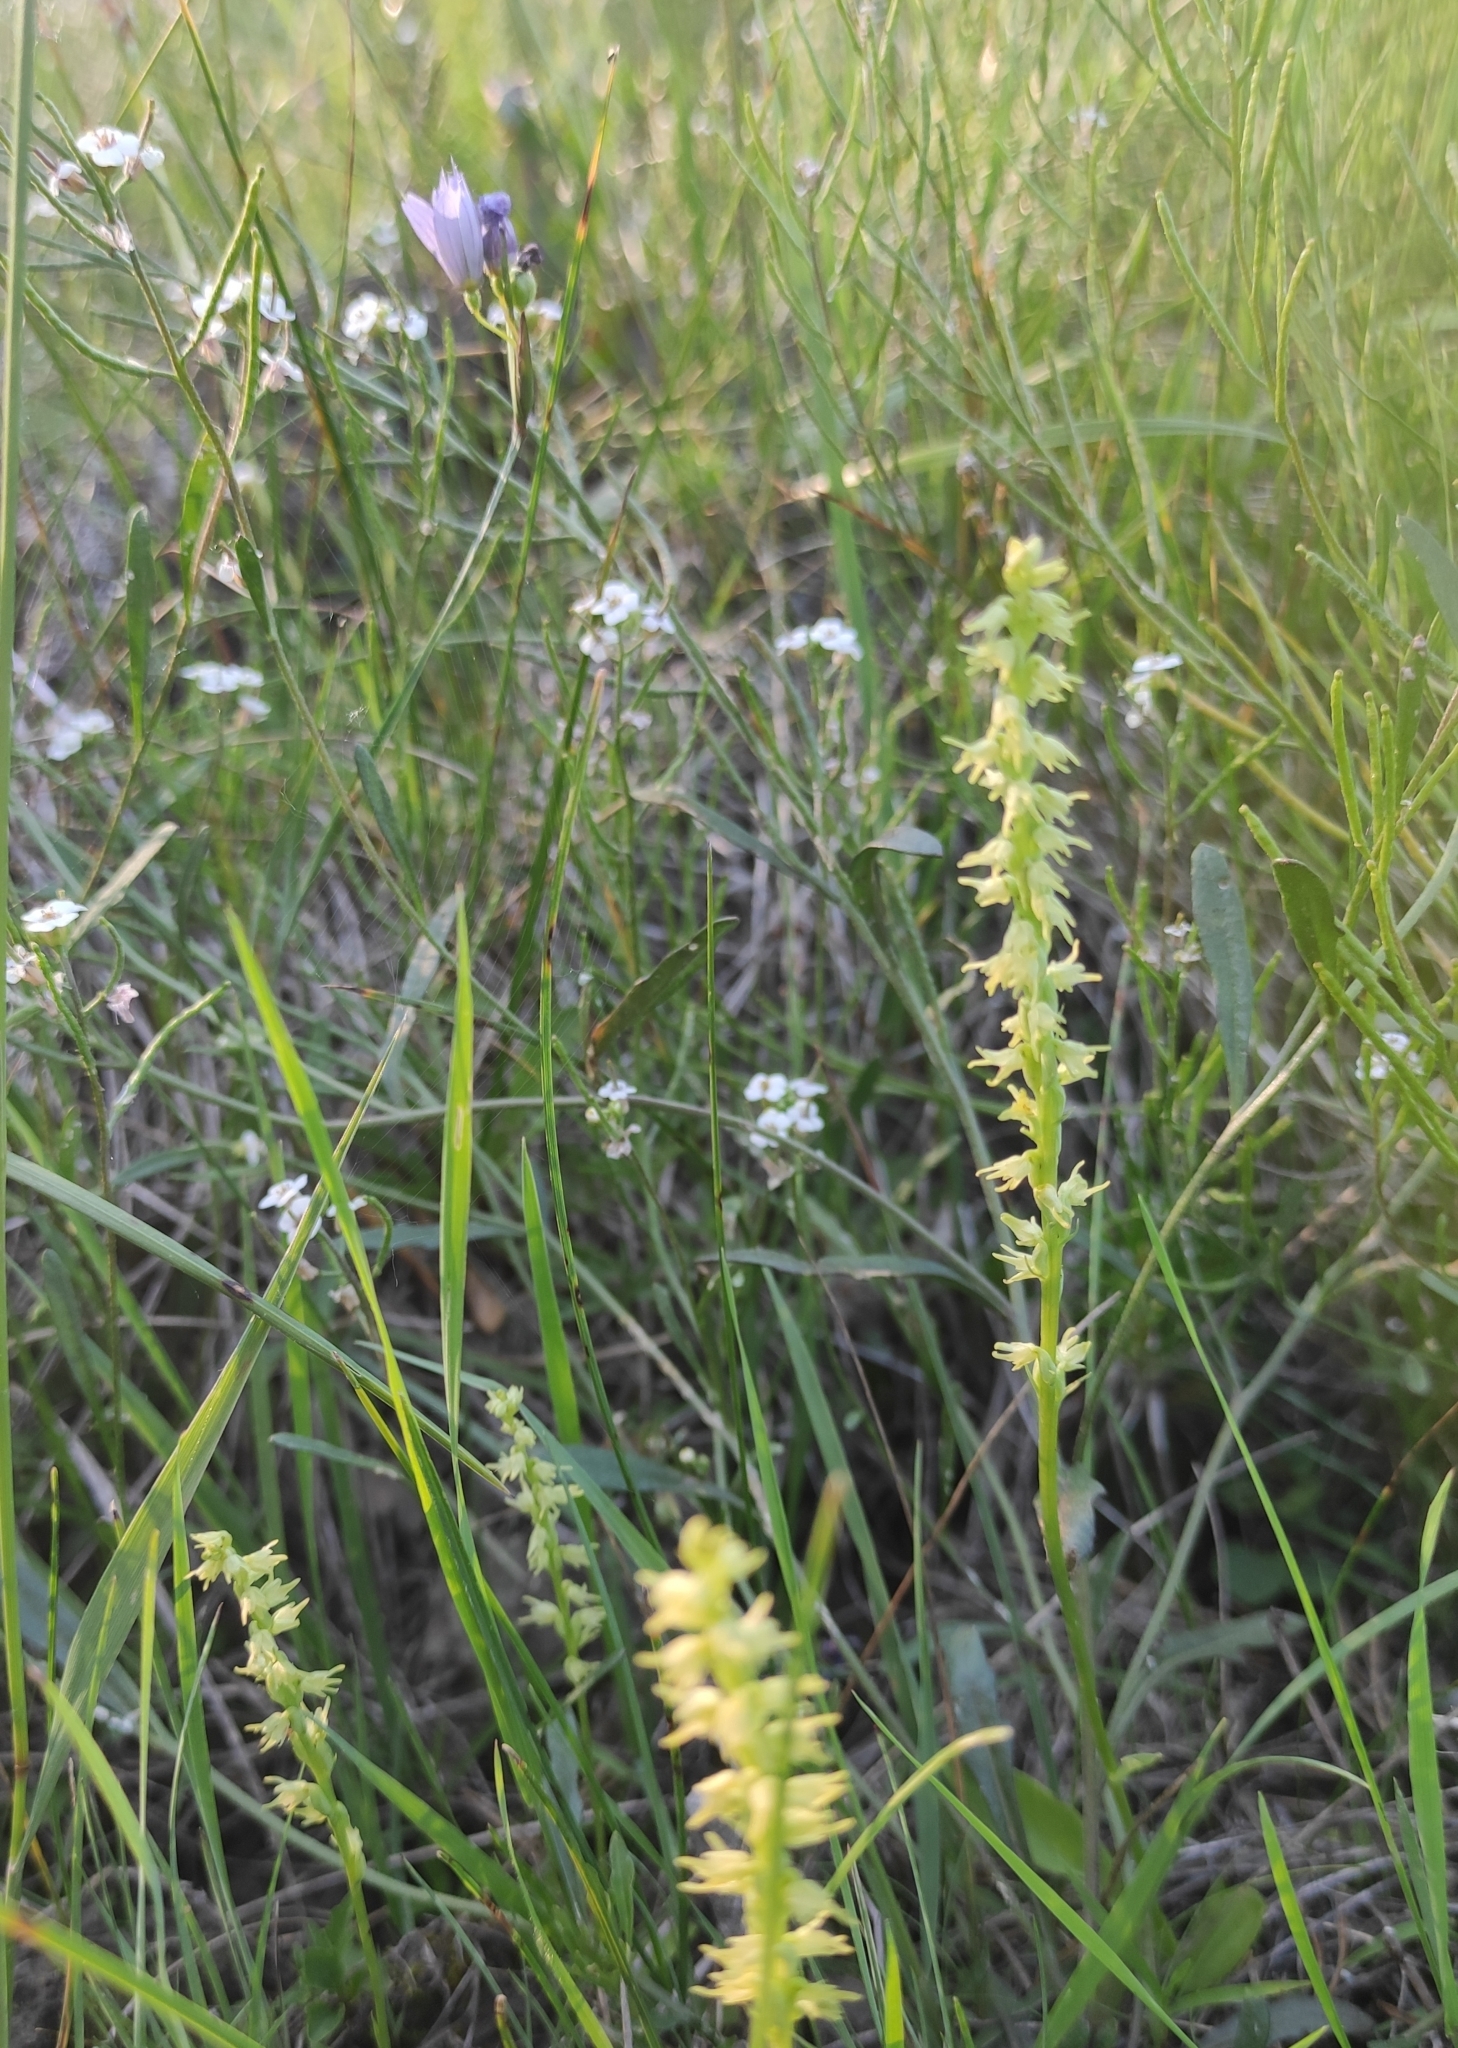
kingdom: Plantae
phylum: Tracheophyta
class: Liliopsida
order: Asparagales
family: Orchidaceae
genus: Herminium
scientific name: Herminium monorchis
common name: Musk orchid
